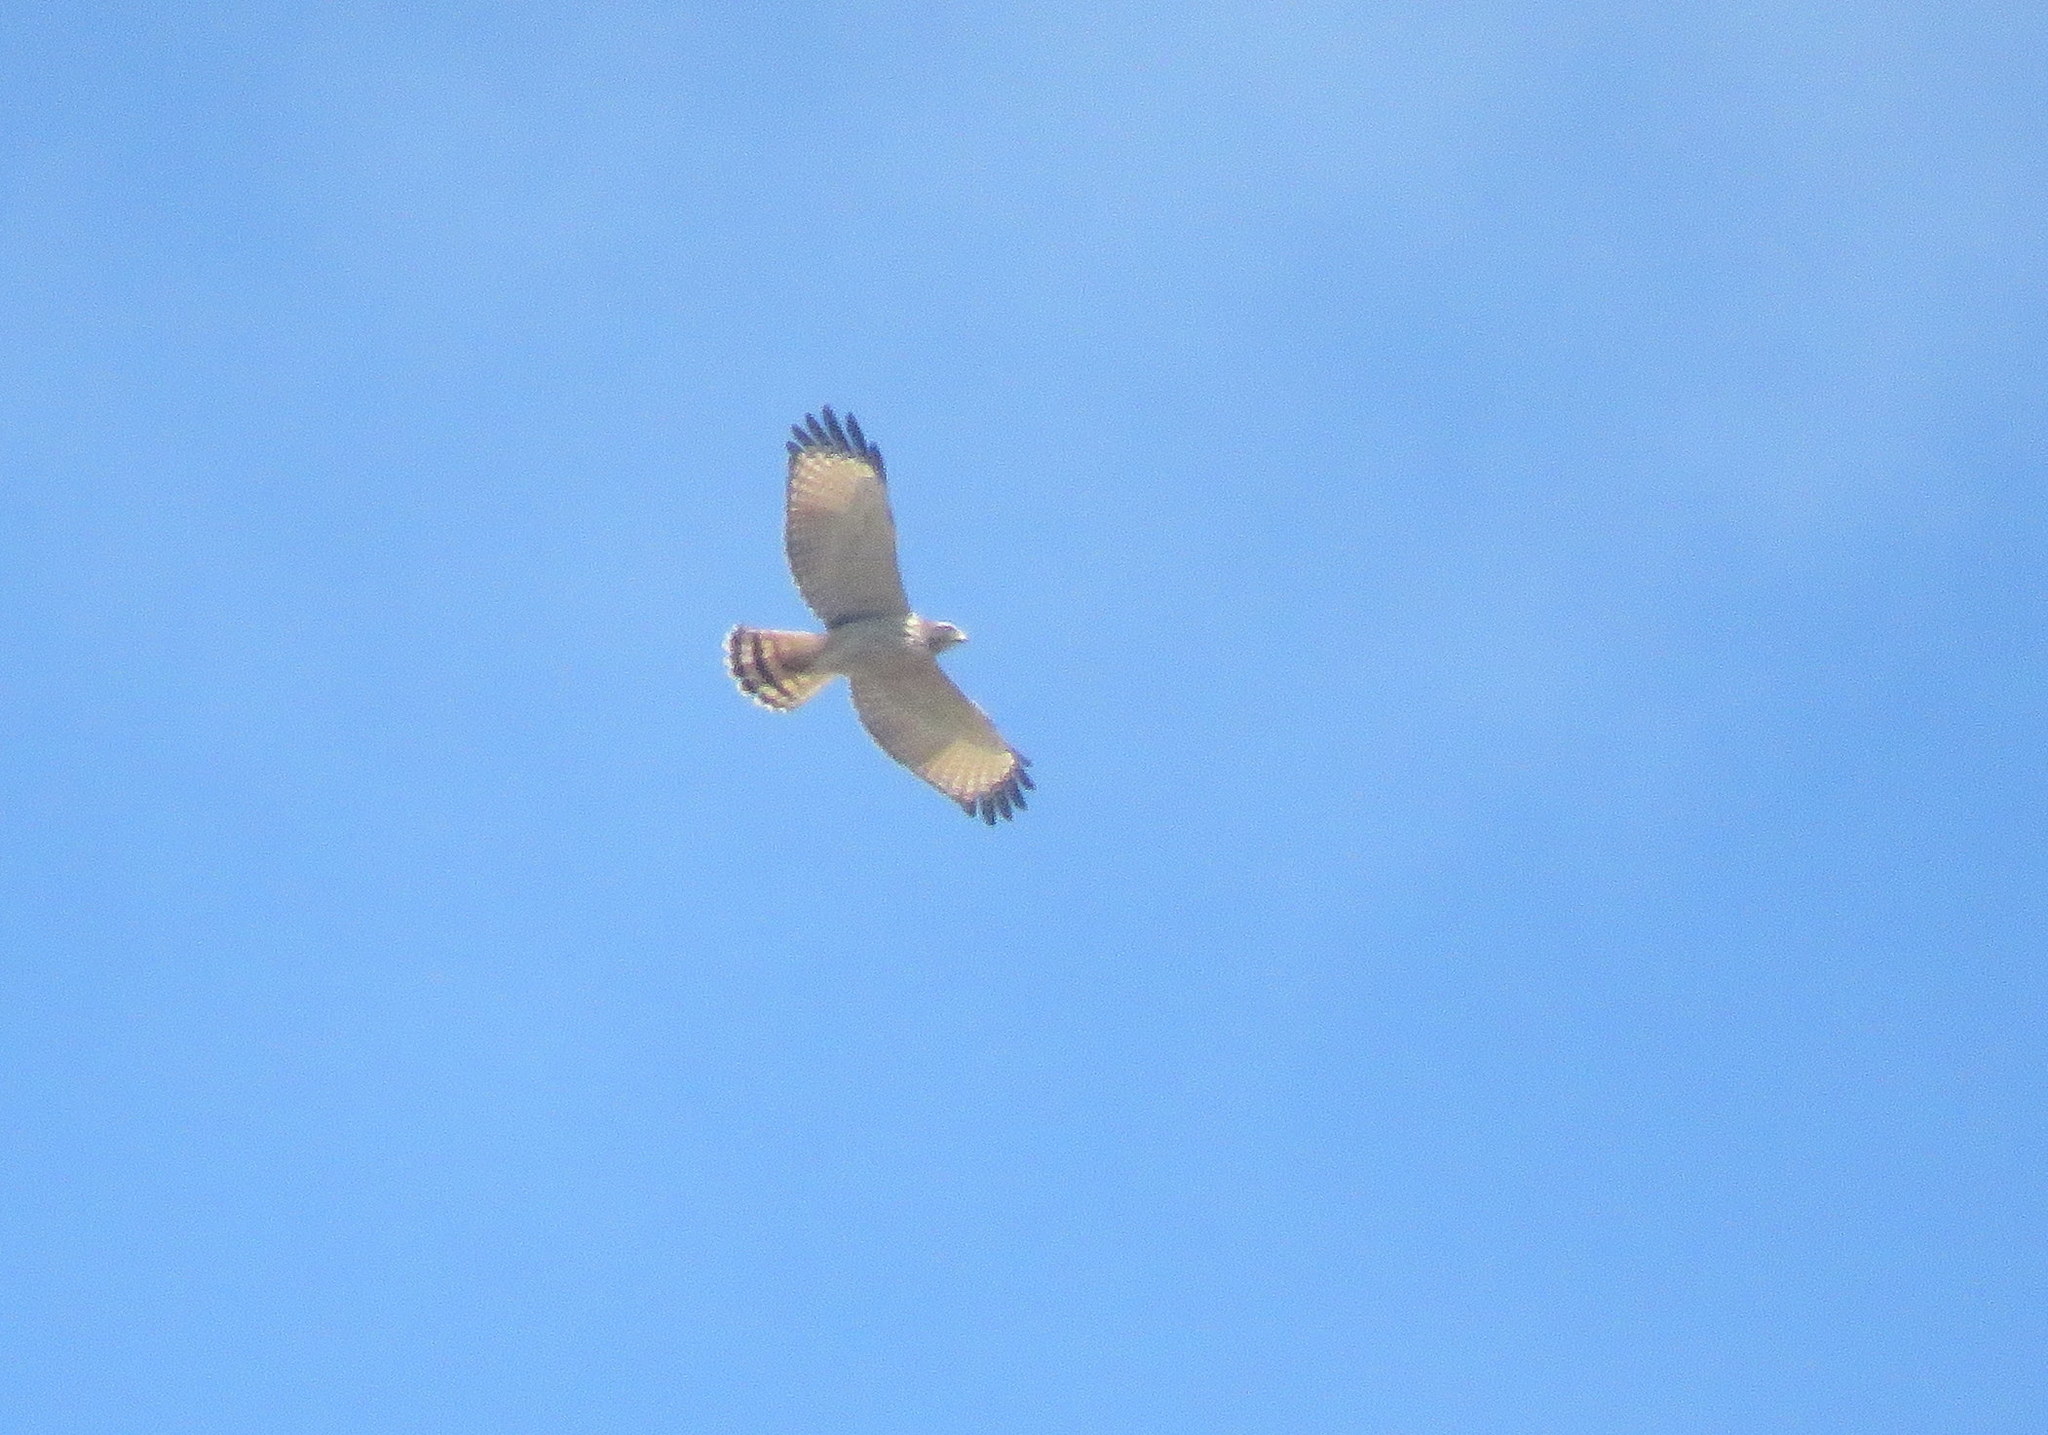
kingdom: Animalia
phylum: Chordata
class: Aves
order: Accipitriformes
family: Accipitridae
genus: Rupornis
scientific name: Rupornis magnirostris
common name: Roadside hawk
